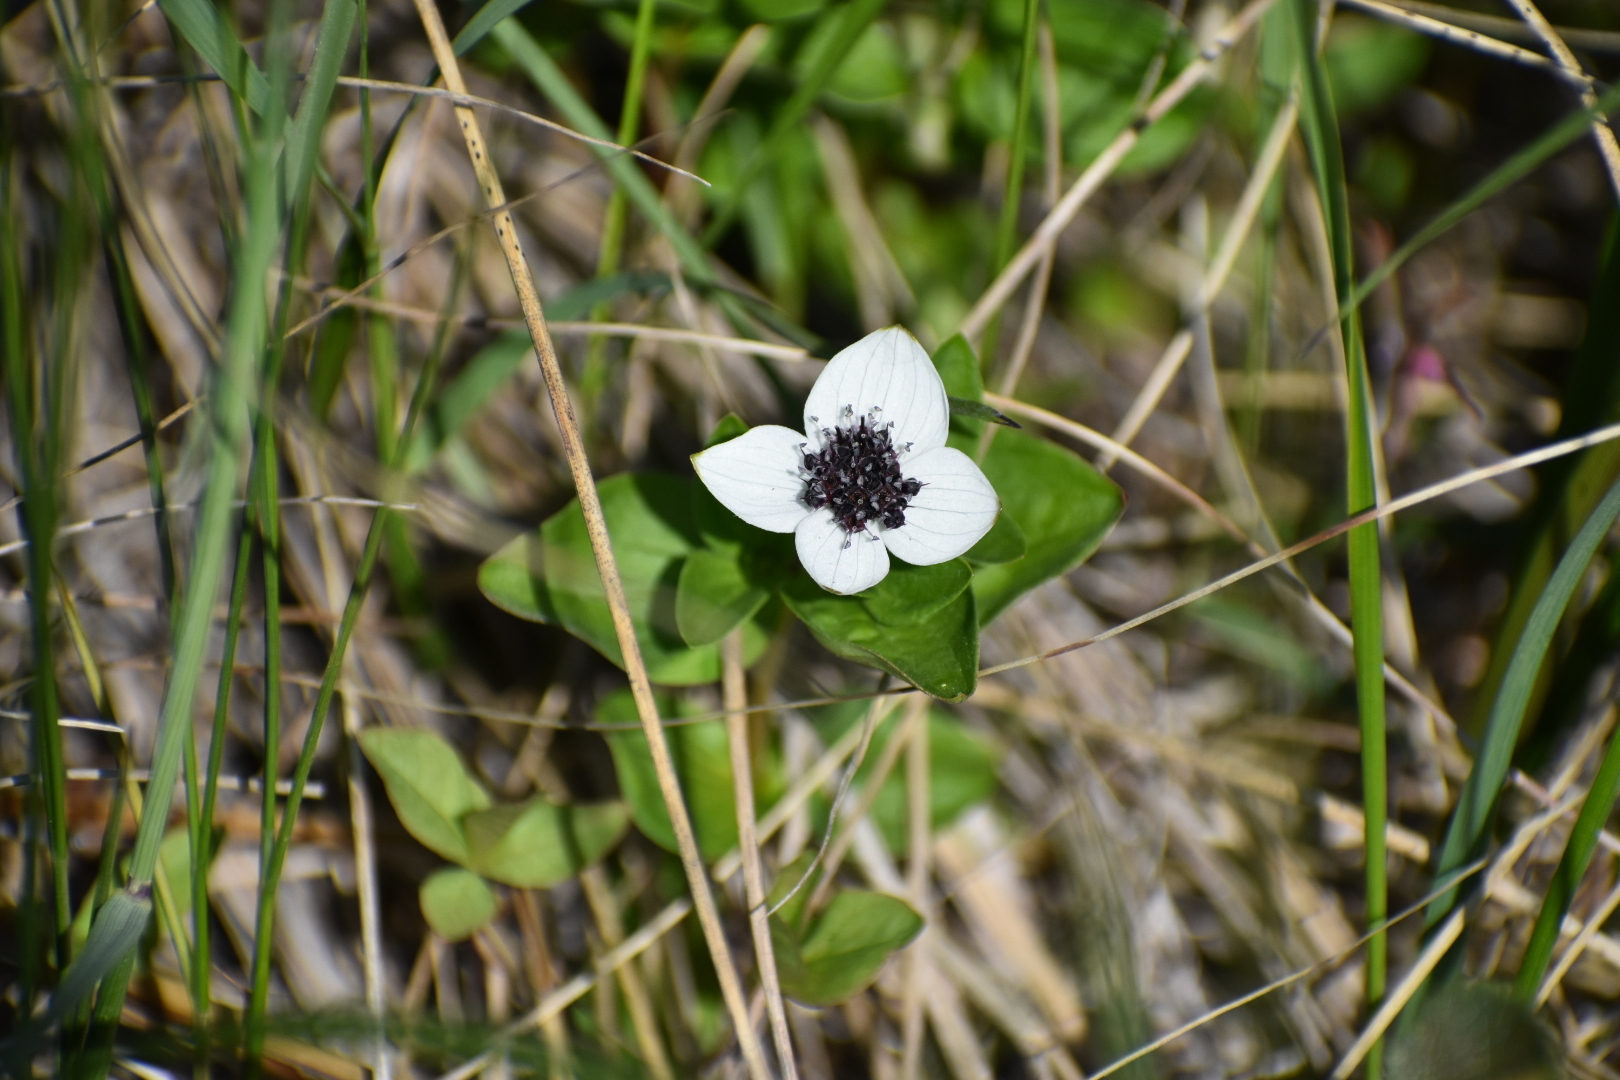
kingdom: Plantae
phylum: Tracheophyta
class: Magnoliopsida
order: Cornales
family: Cornaceae
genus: Cornus
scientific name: Cornus suecica
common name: Dwarf cornel
